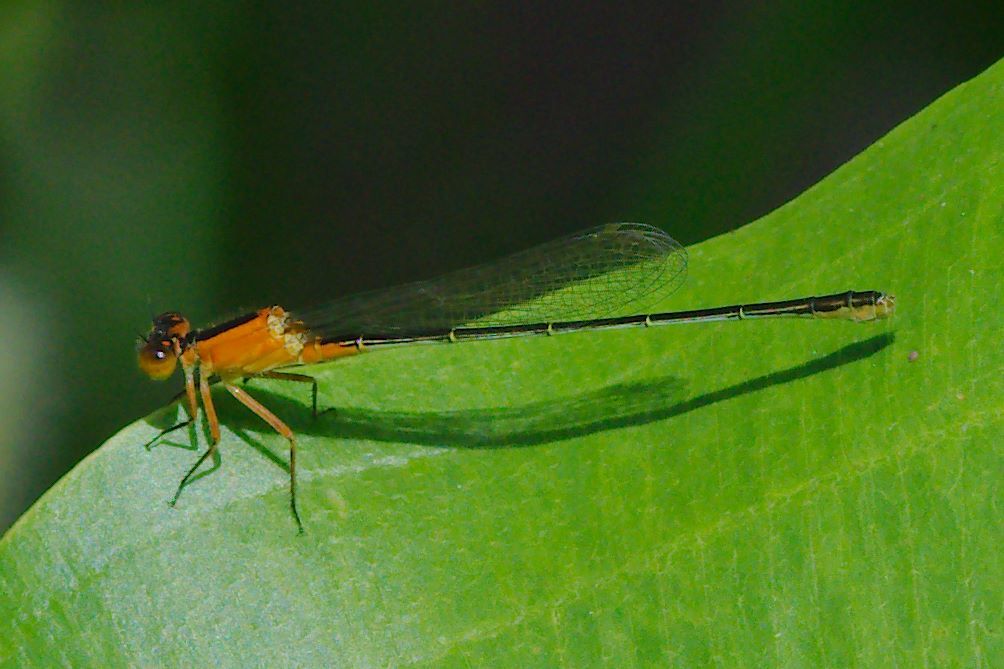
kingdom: Animalia
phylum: Arthropoda
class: Insecta
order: Odonata
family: Coenagrionidae
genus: Ischnura
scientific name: Ischnura ramburii
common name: Rambur's forktail
